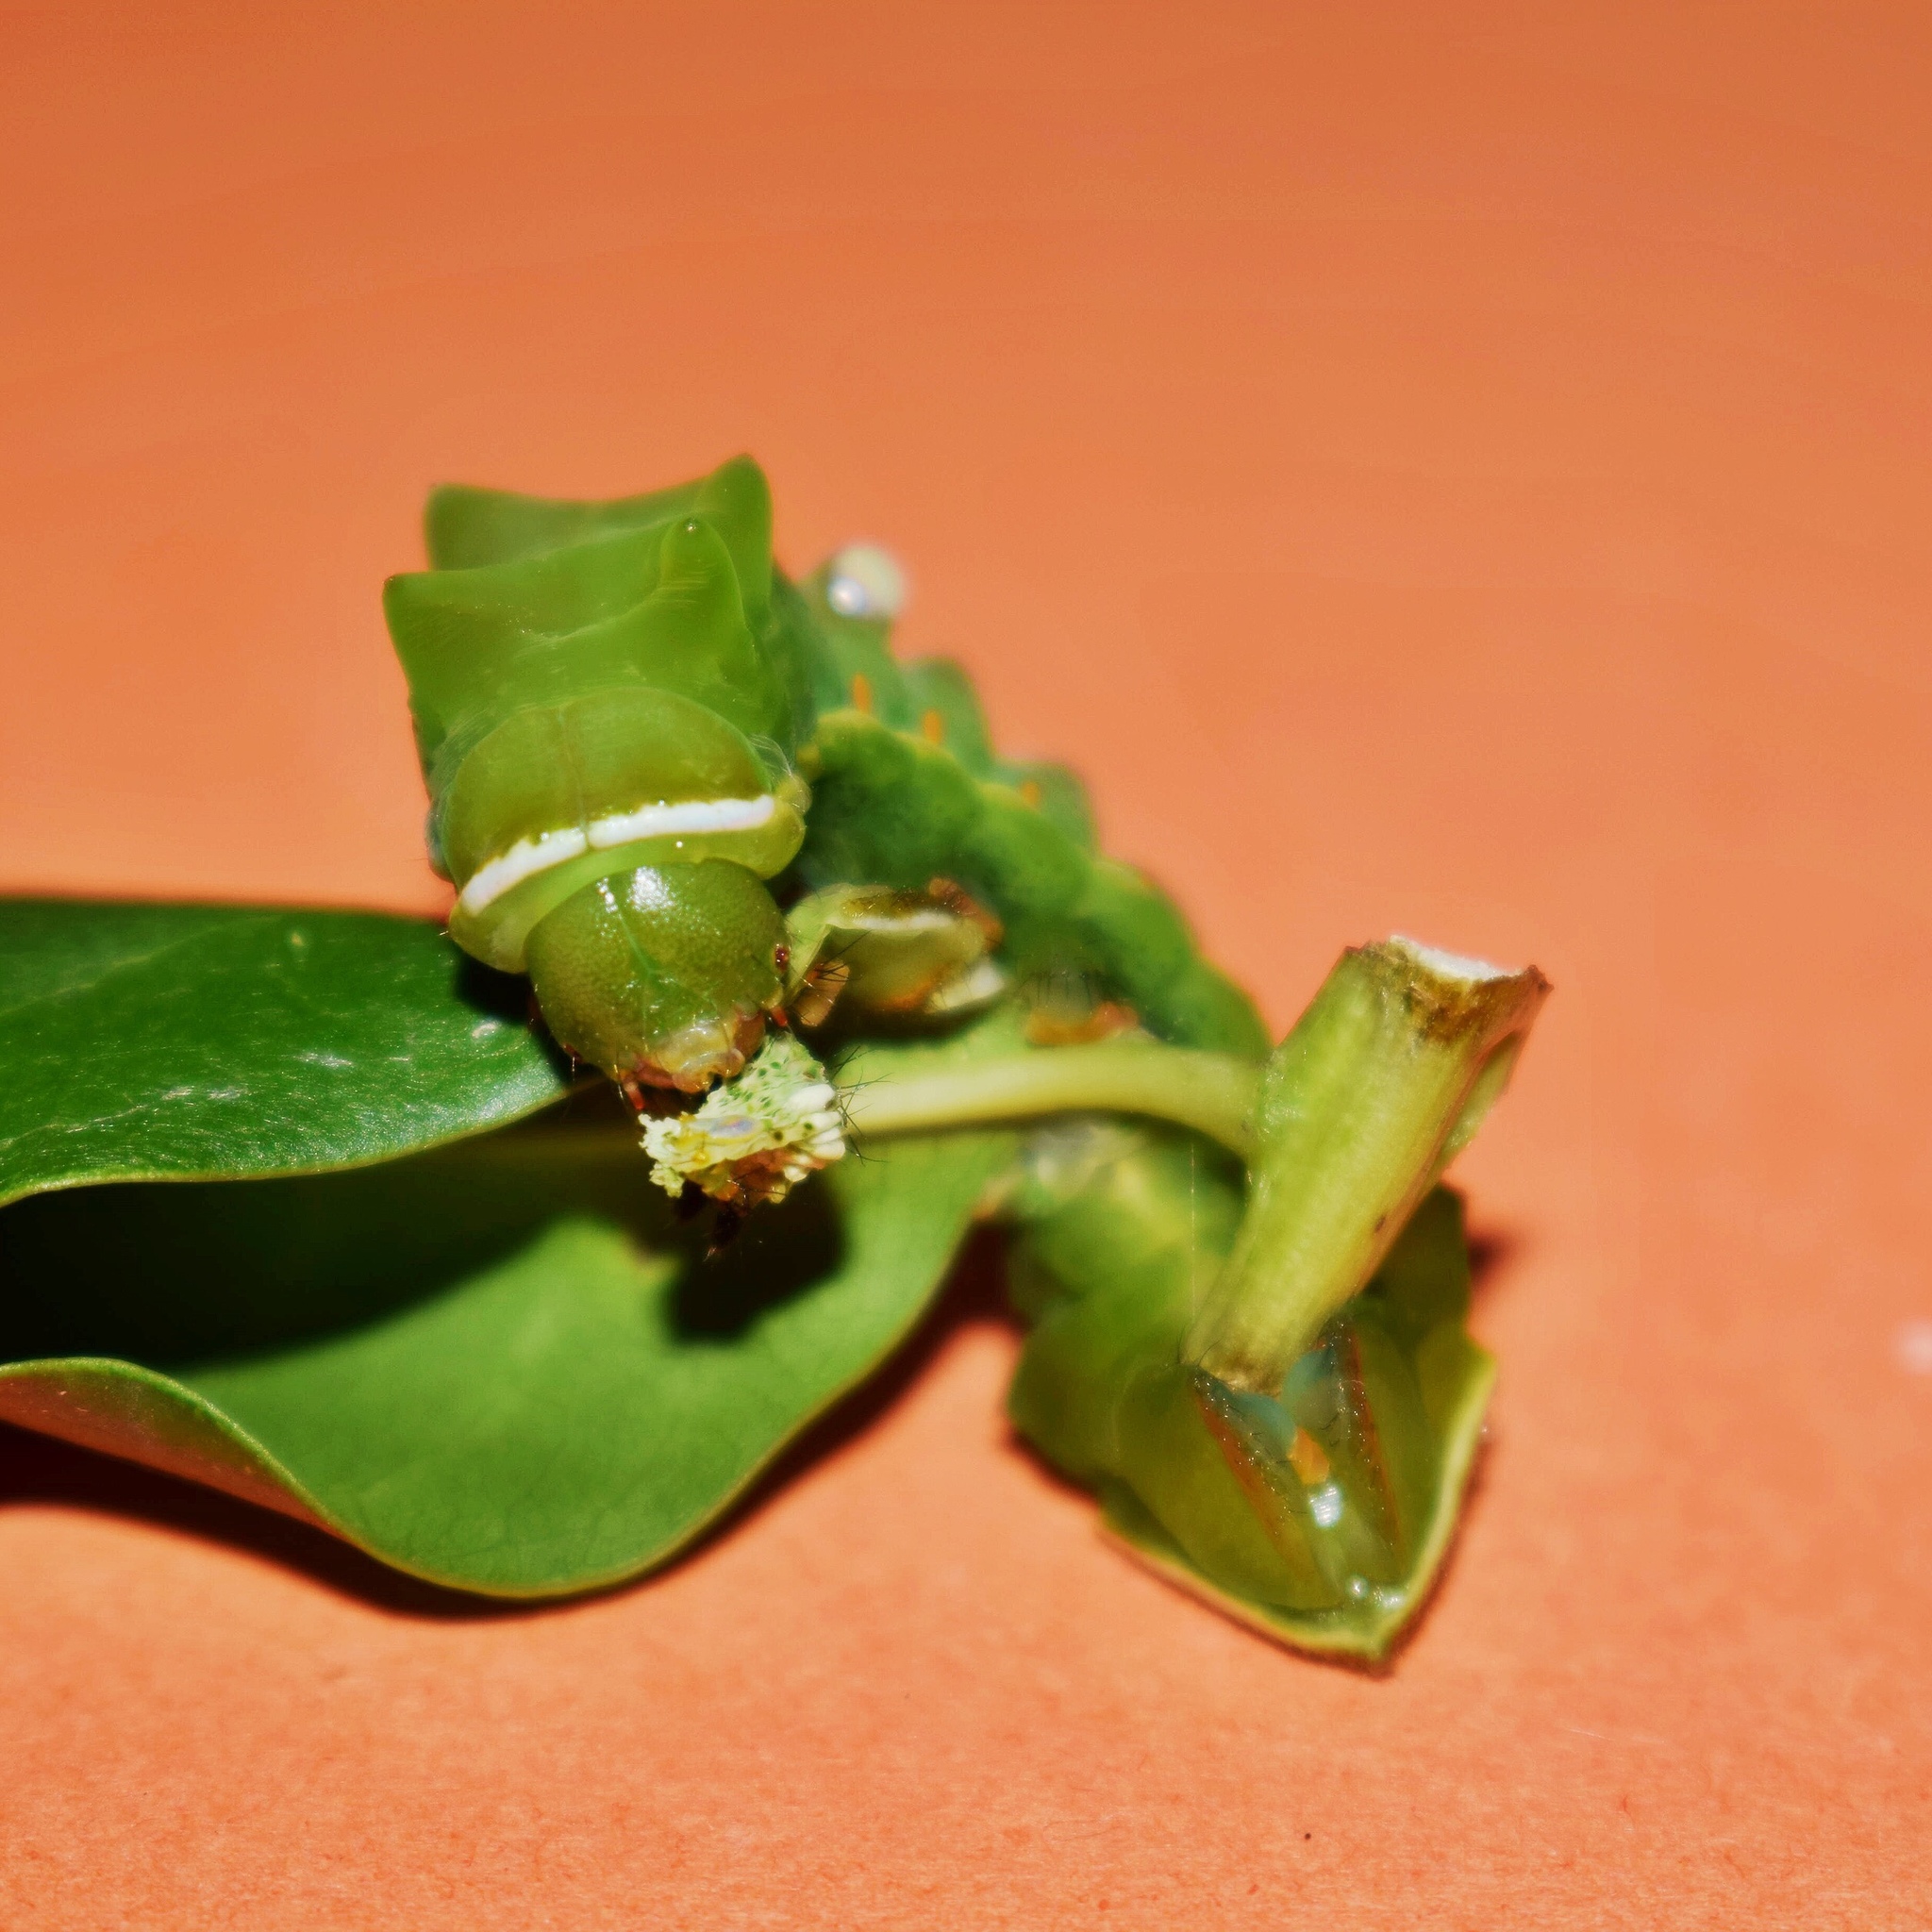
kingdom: Animalia
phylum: Arthropoda
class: Insecta
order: Lepidoptera
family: Saturniidae
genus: Pseudobunaea
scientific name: Pseudobunaea tyrrhena
